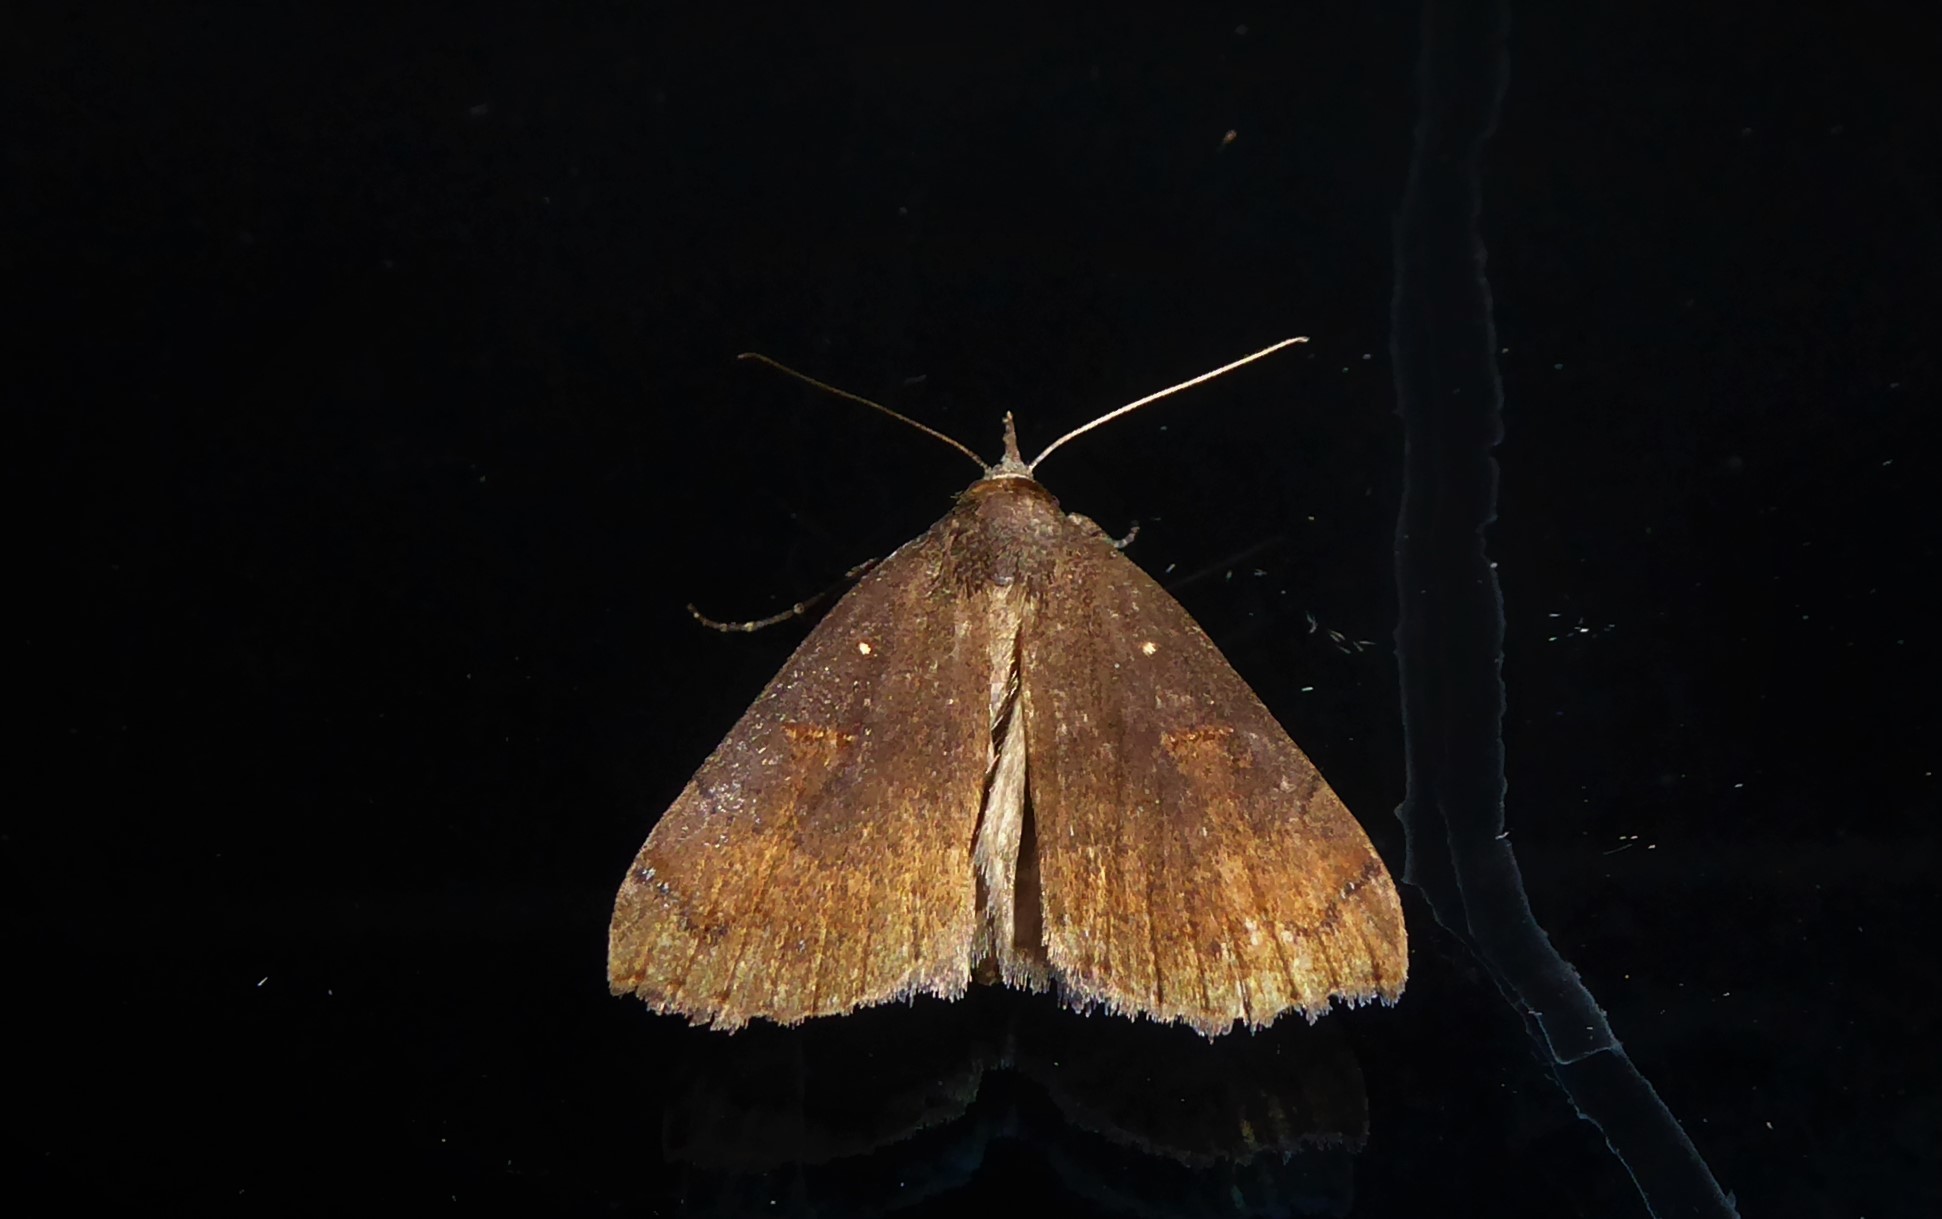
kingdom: Animalia
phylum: Arthropoda
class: Insecta
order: Lepidoptera
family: Erebidae
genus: Rhapsa
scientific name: Rhapsa scotosialis
